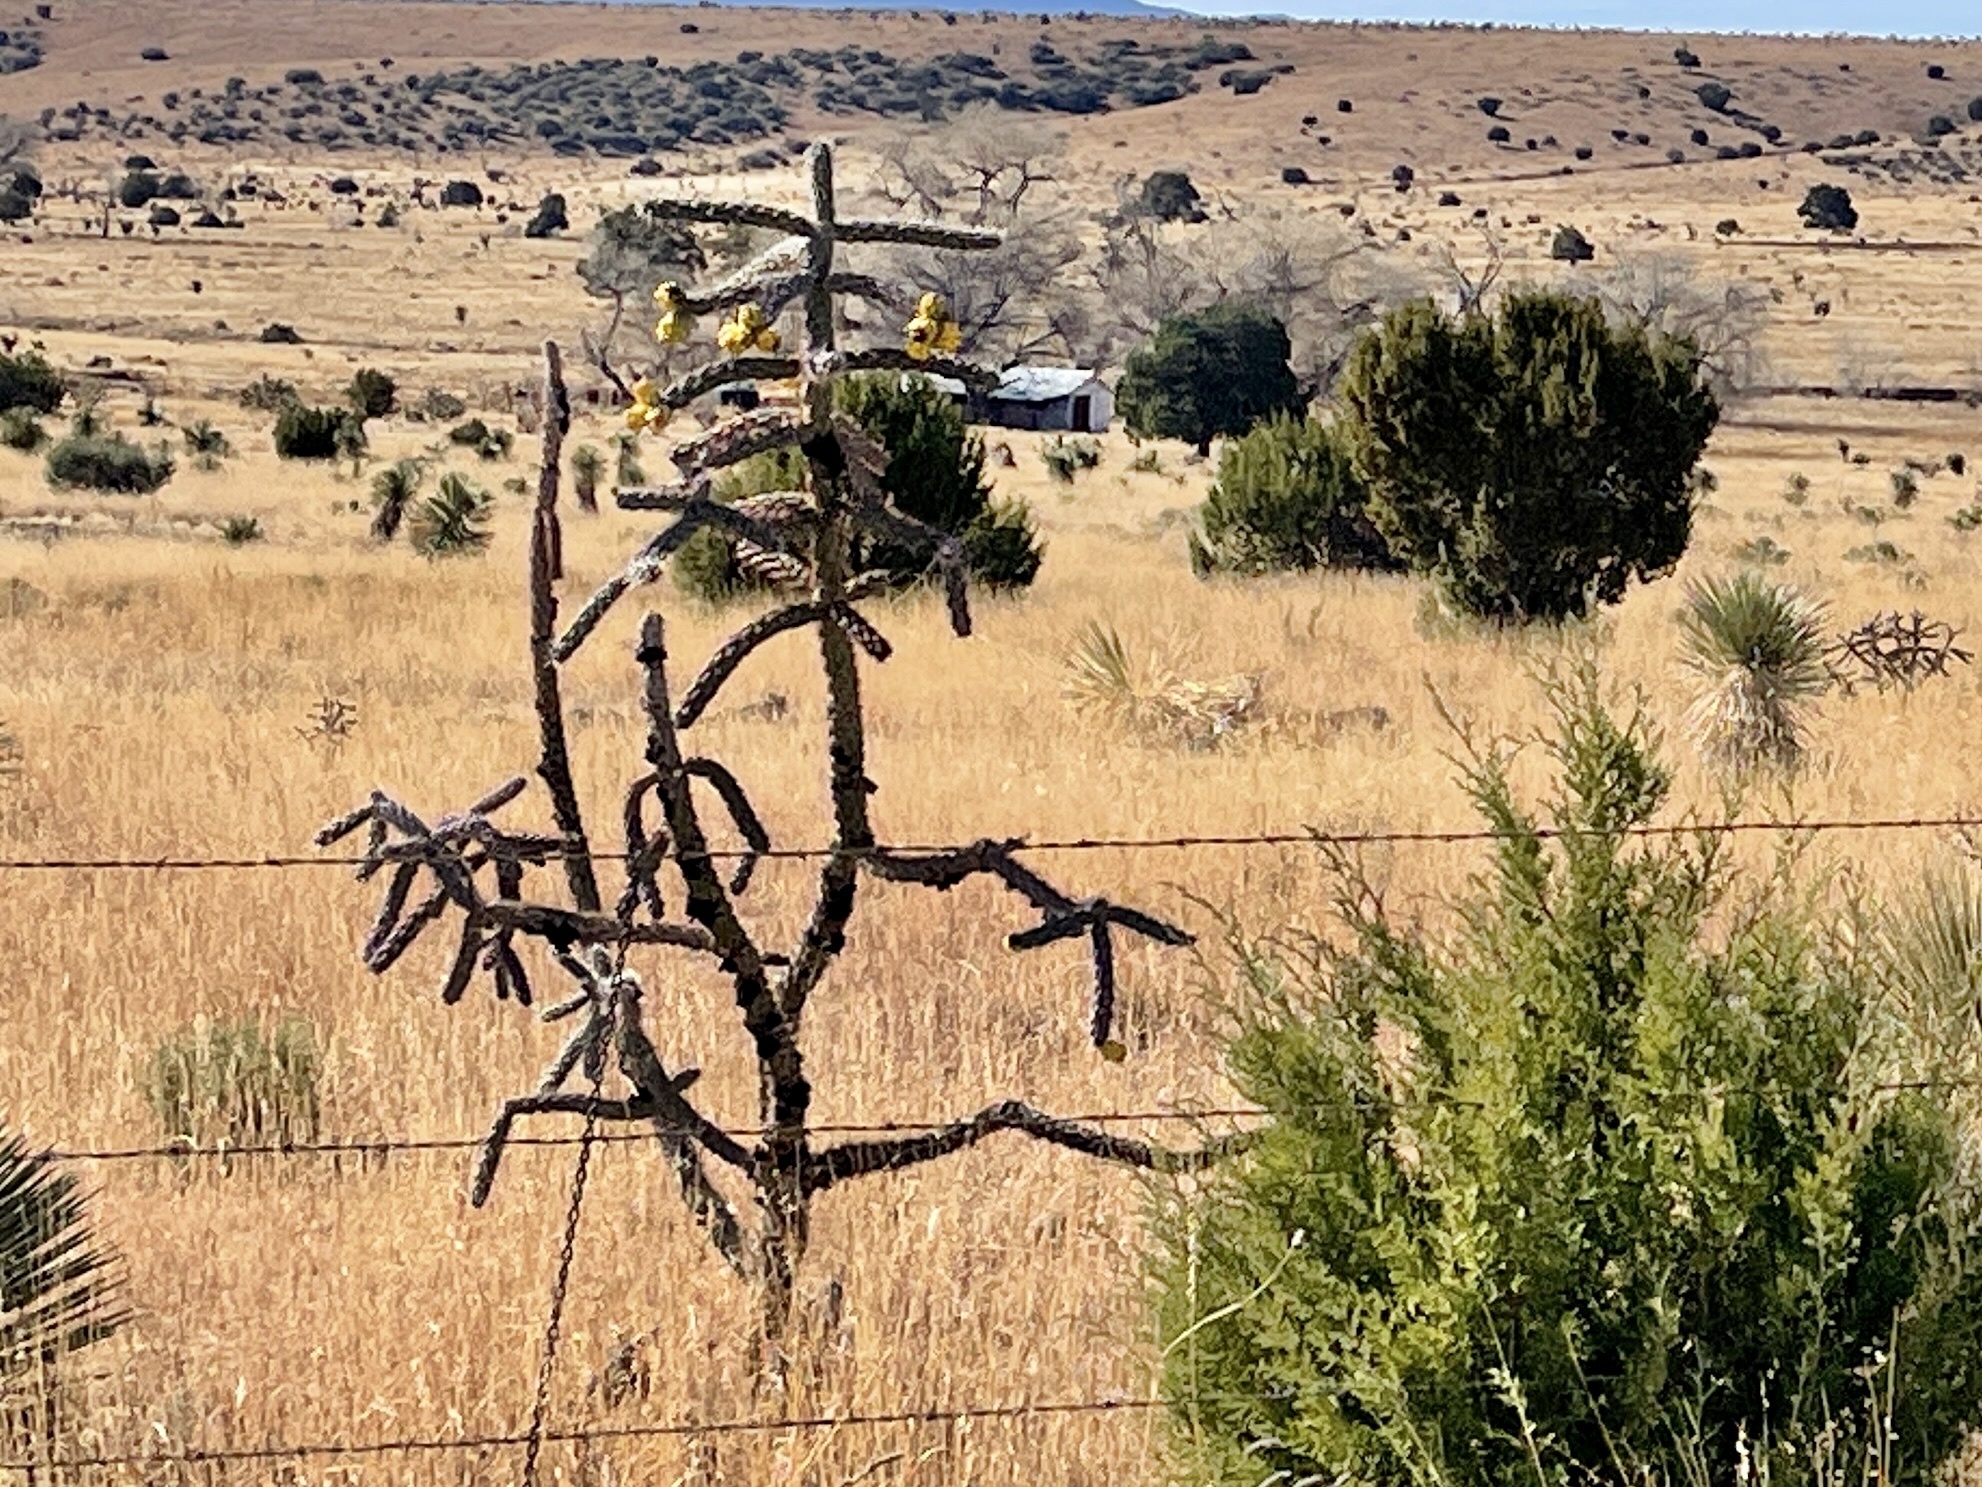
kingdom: Plantae
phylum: Tracheophyta
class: Magnoliopsida
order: Caryophyllales
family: Cactaceae
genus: Cylindropuntia
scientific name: Cylindropuntia imbricata
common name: Candelabrum cactus
